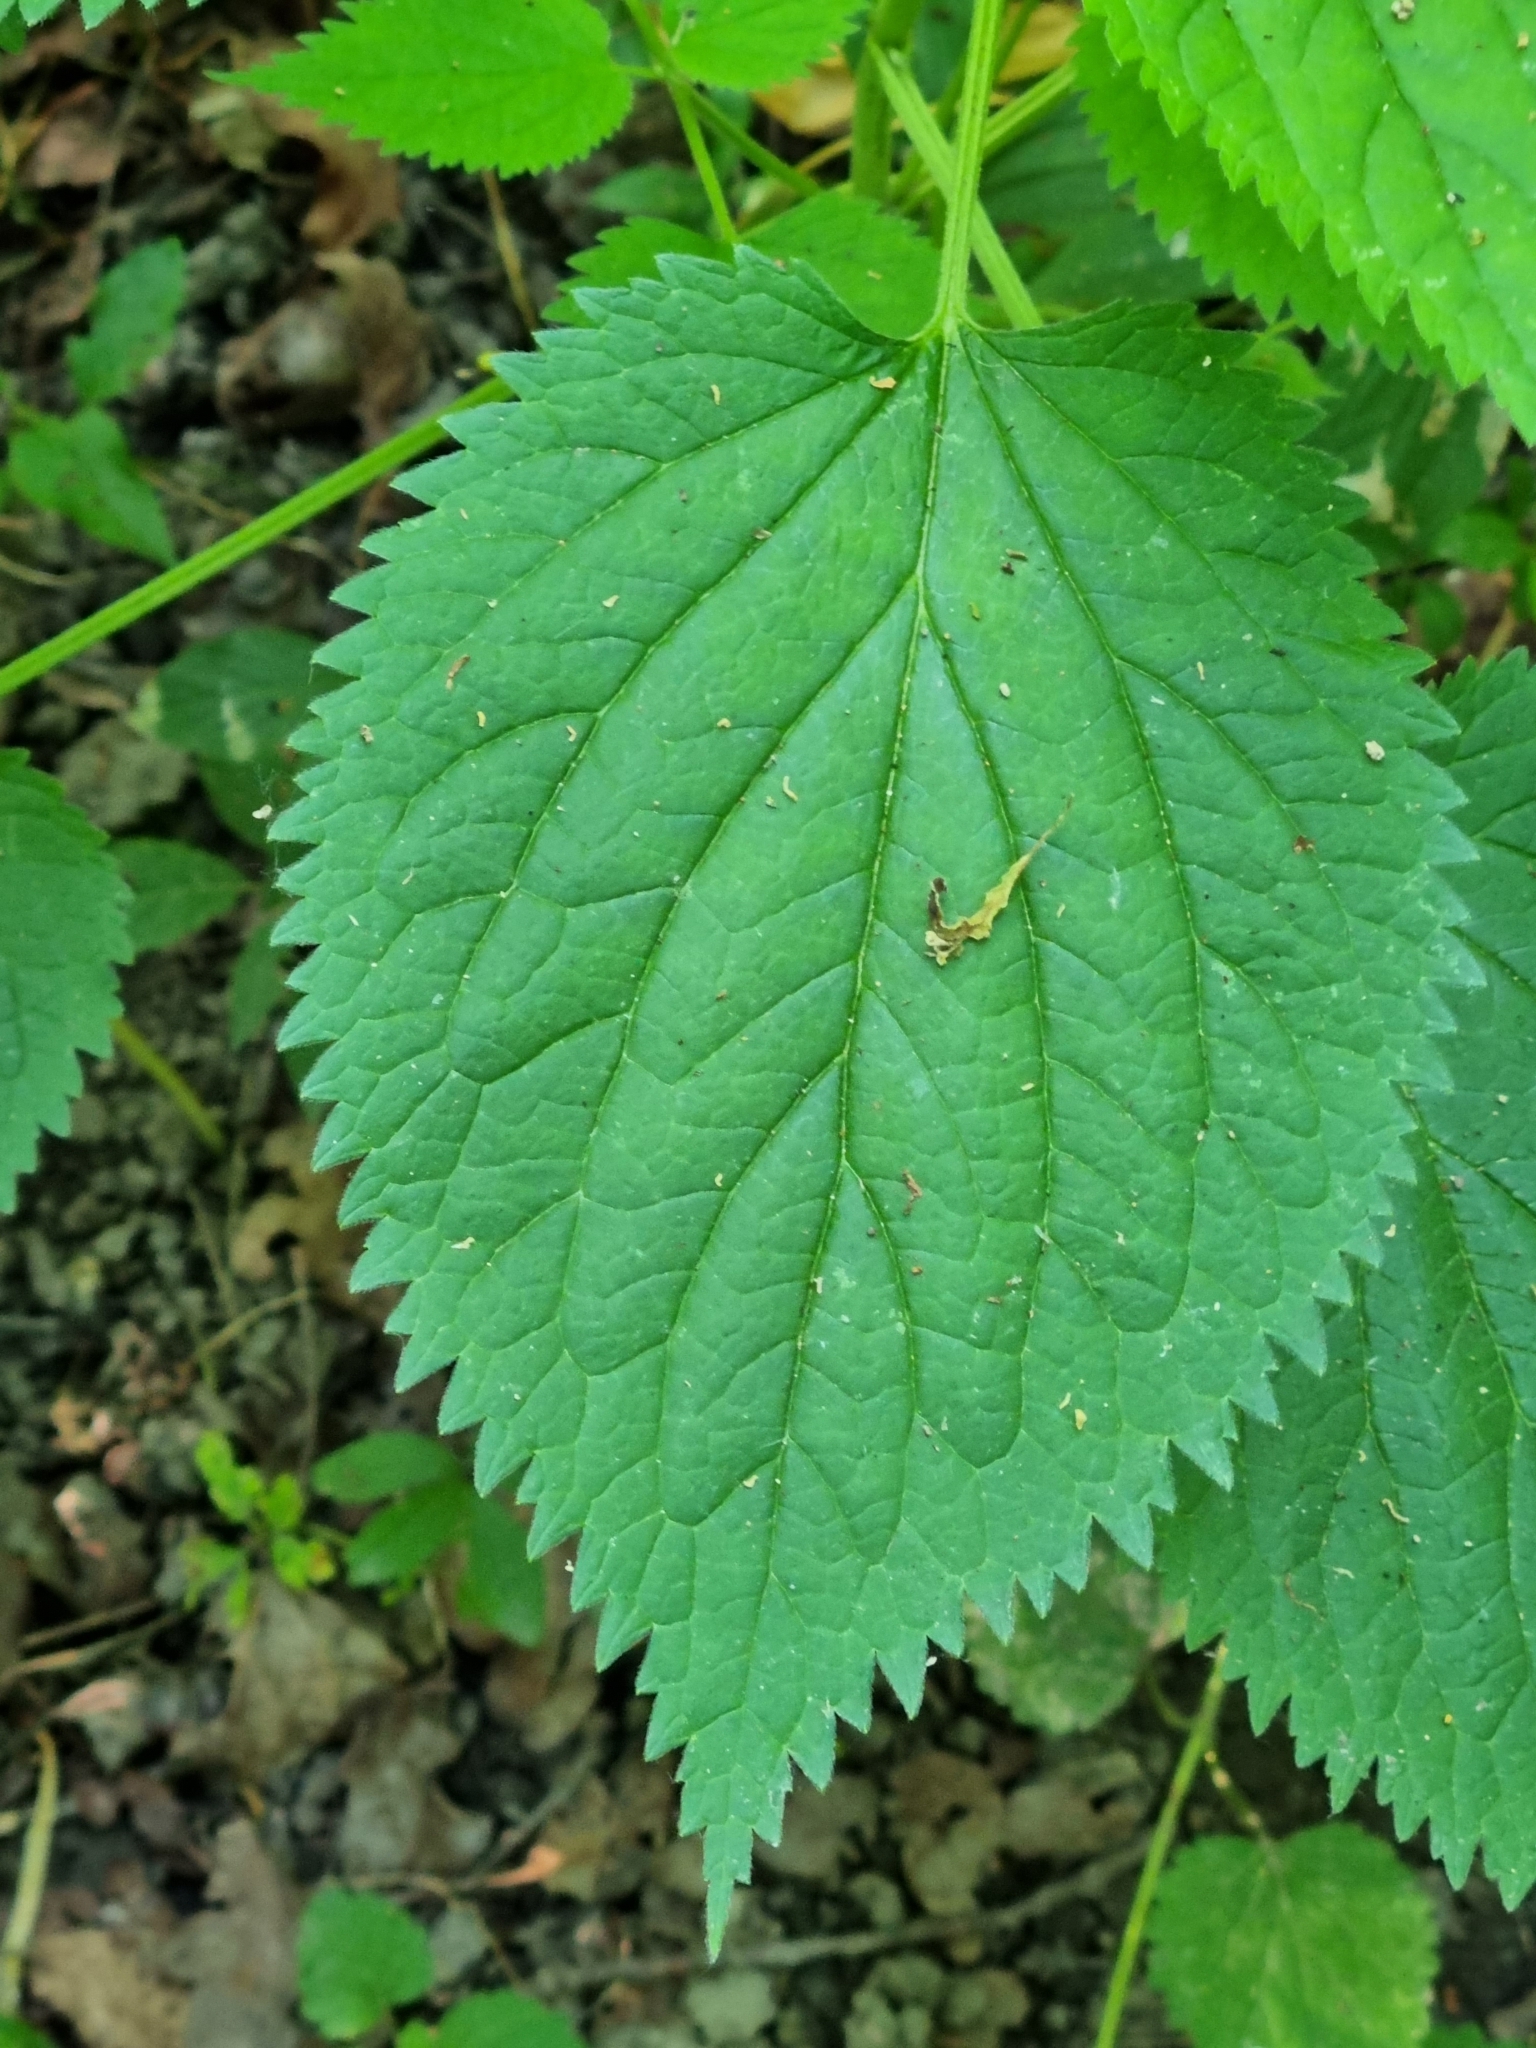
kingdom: Plantae
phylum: Tracheophyta
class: Magnoliopsida
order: Lamiales
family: Lamiaceae
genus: Lamium
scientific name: Lamium orvala
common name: Balm-leaved archangel
